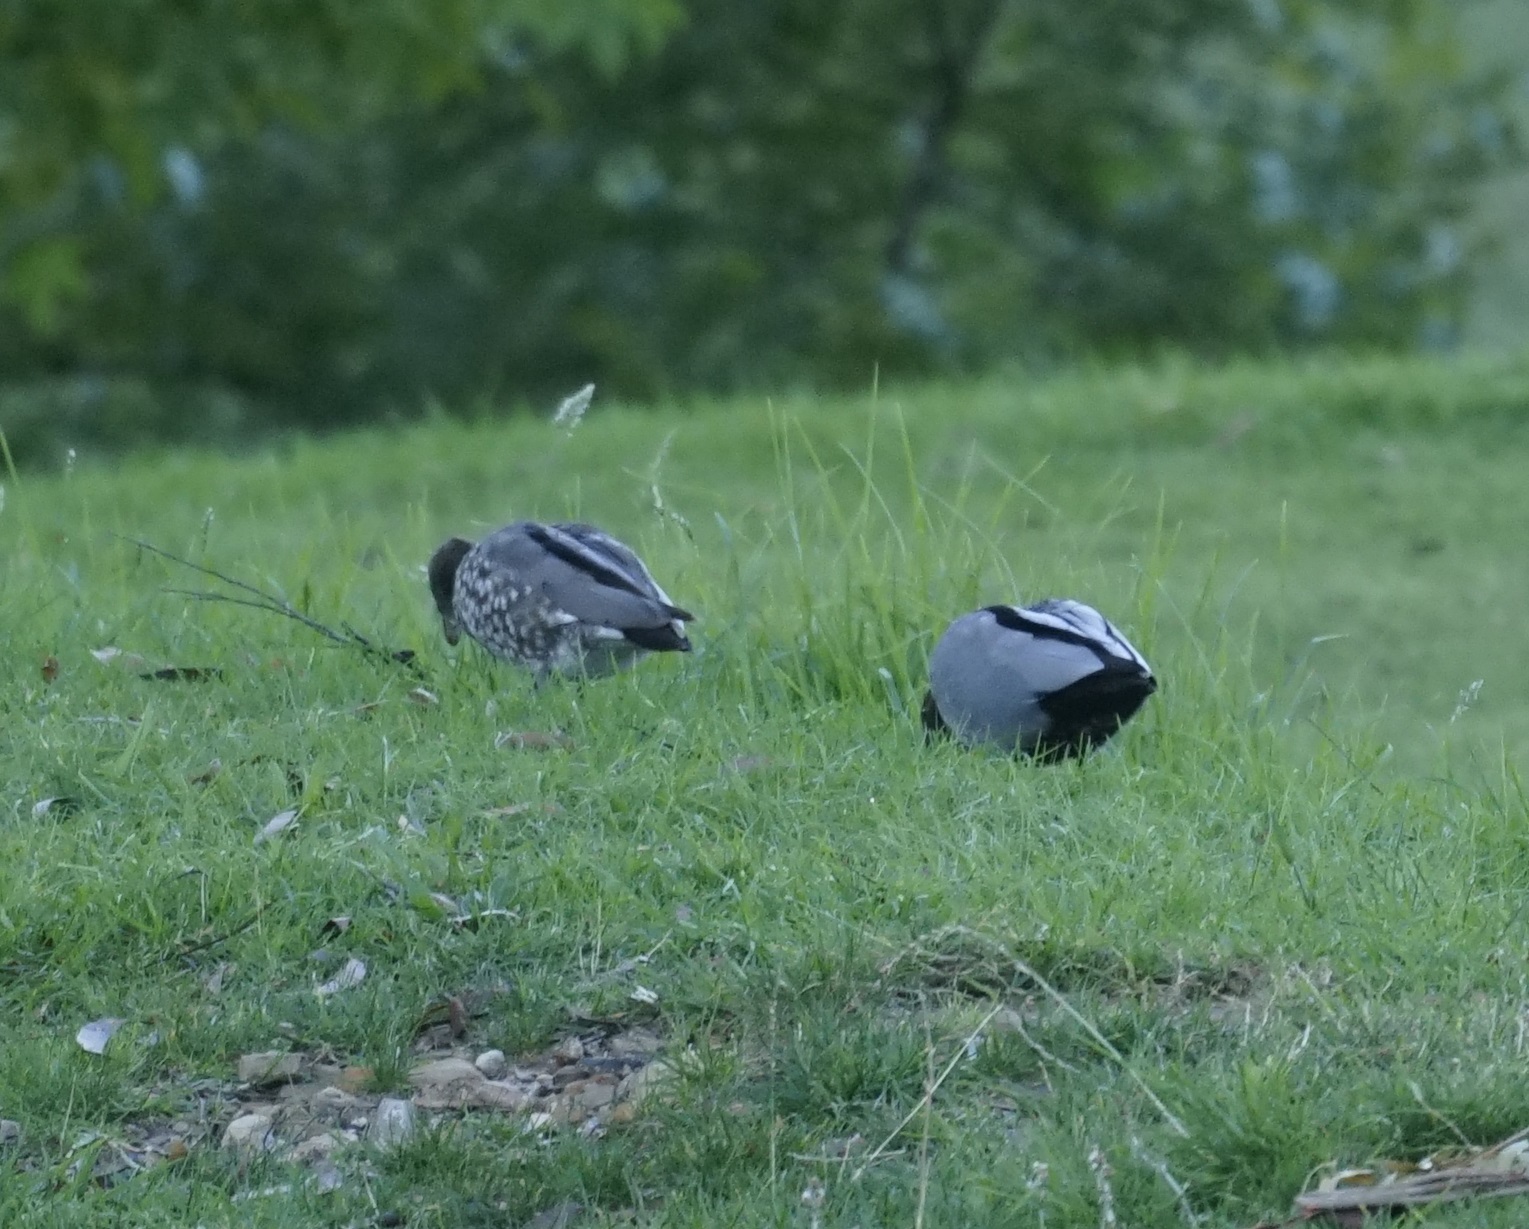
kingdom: Animalia
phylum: Chordata
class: Aves
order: Anseriformes
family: Anatidae
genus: Chenonetta
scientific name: Chenonetta jubata
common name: Maned duck
